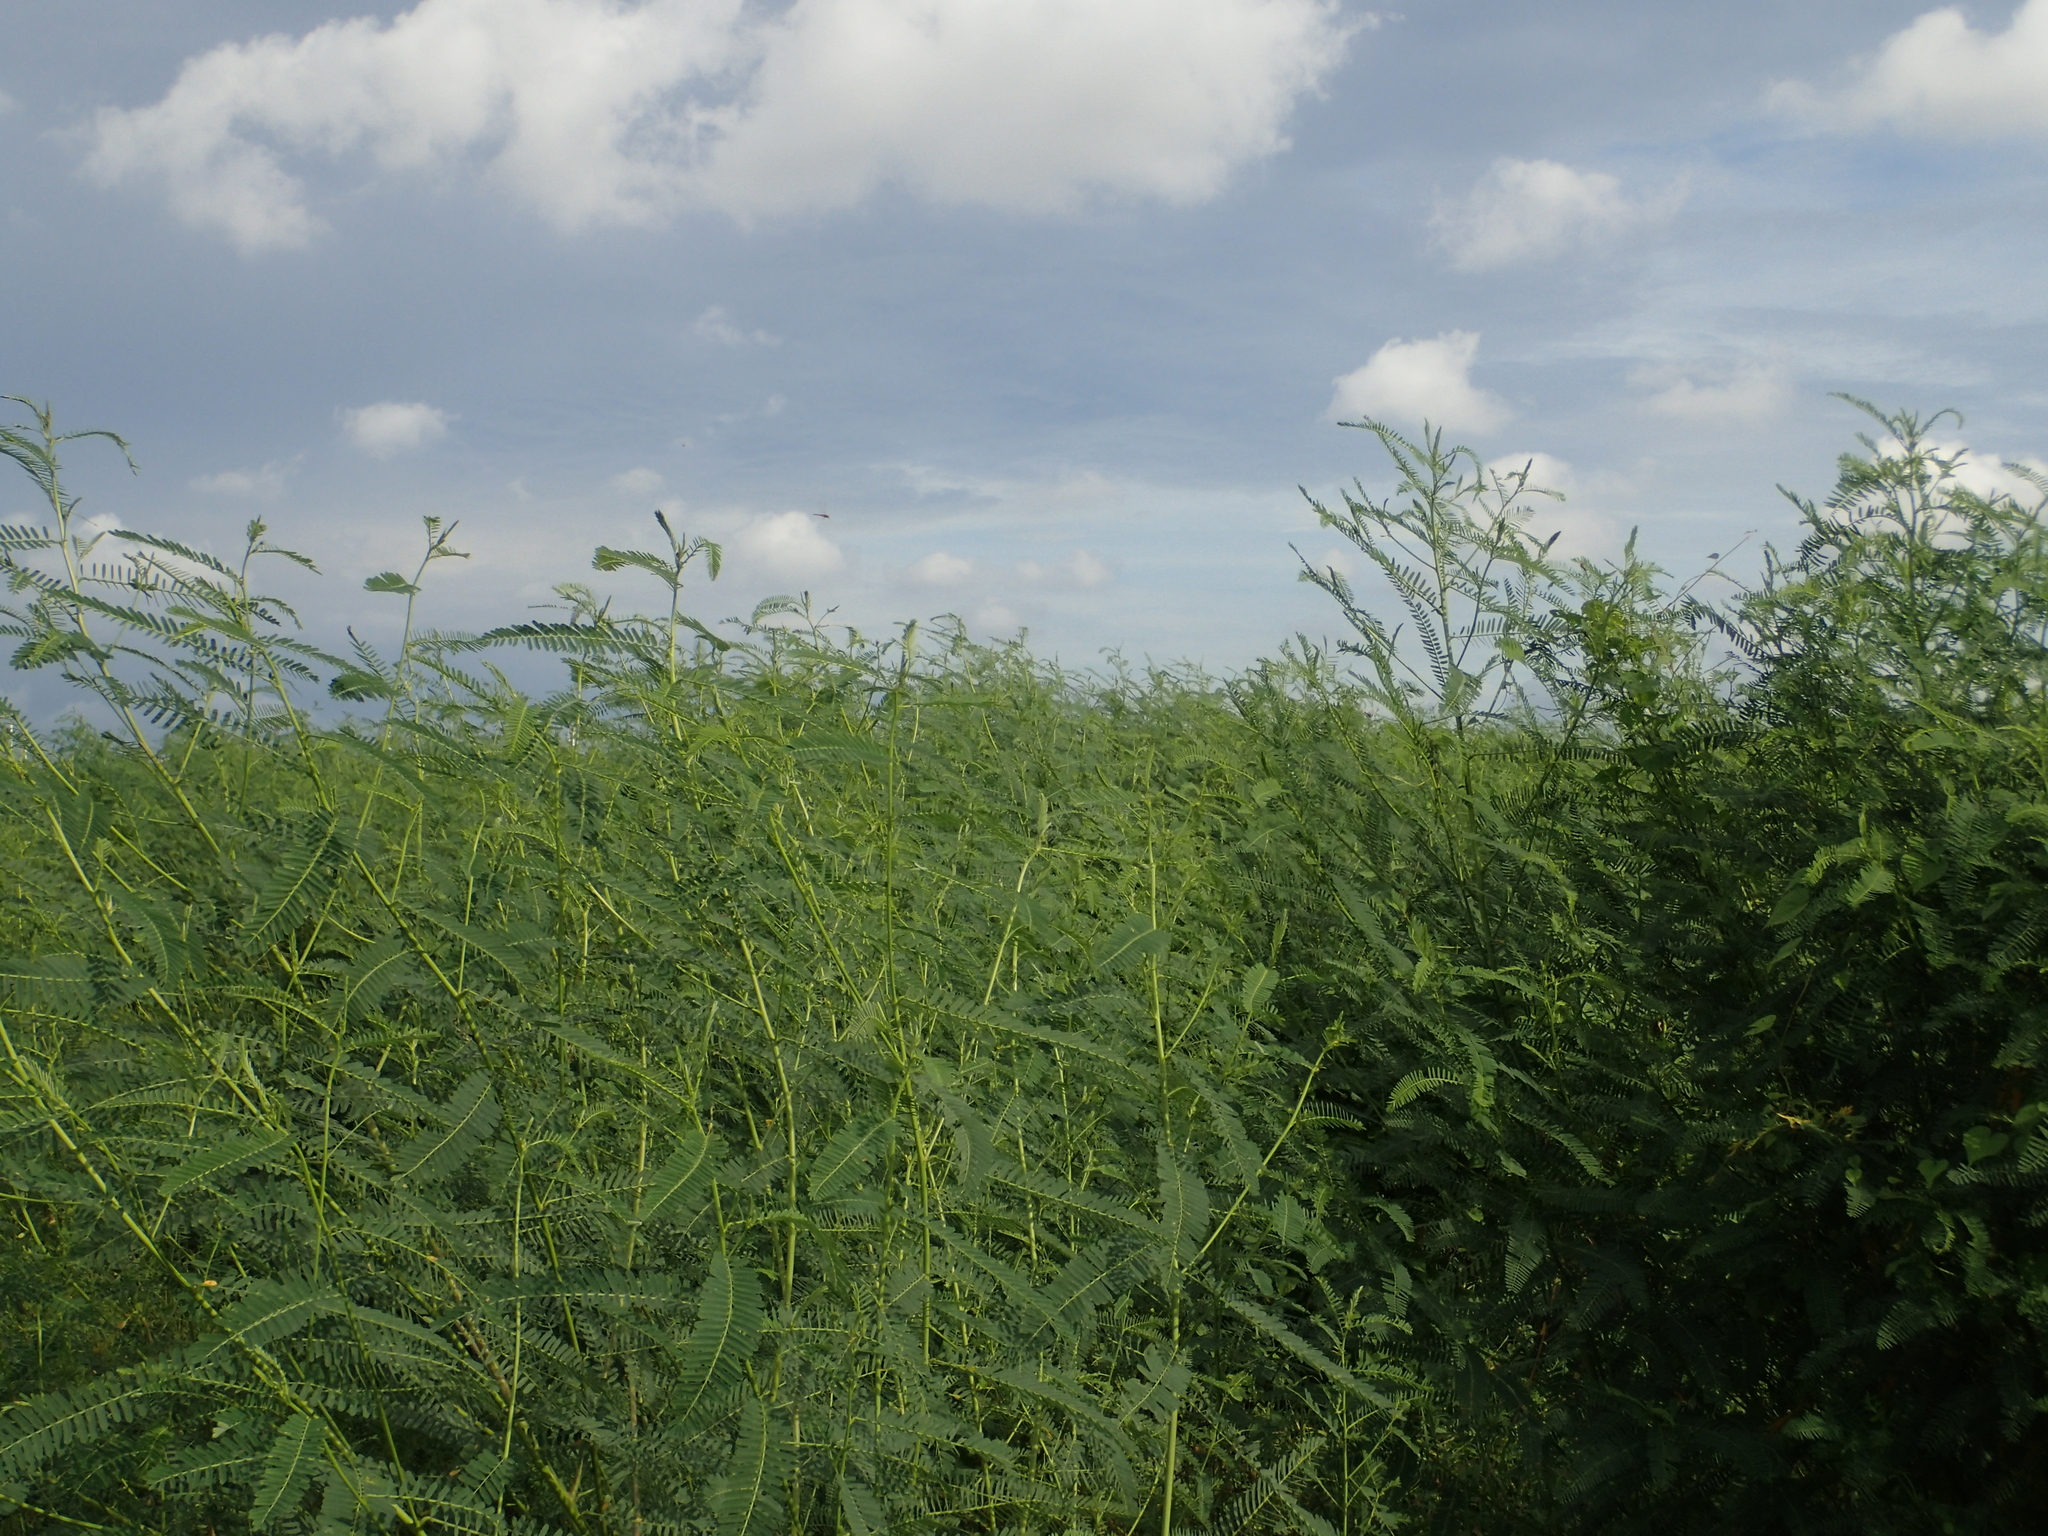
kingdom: Plantae
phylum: Tracheophyta
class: Magnoliopsida
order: Fabales
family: Fabaceae
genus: Sesbania
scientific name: Sesbania cannabina
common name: Canicha
